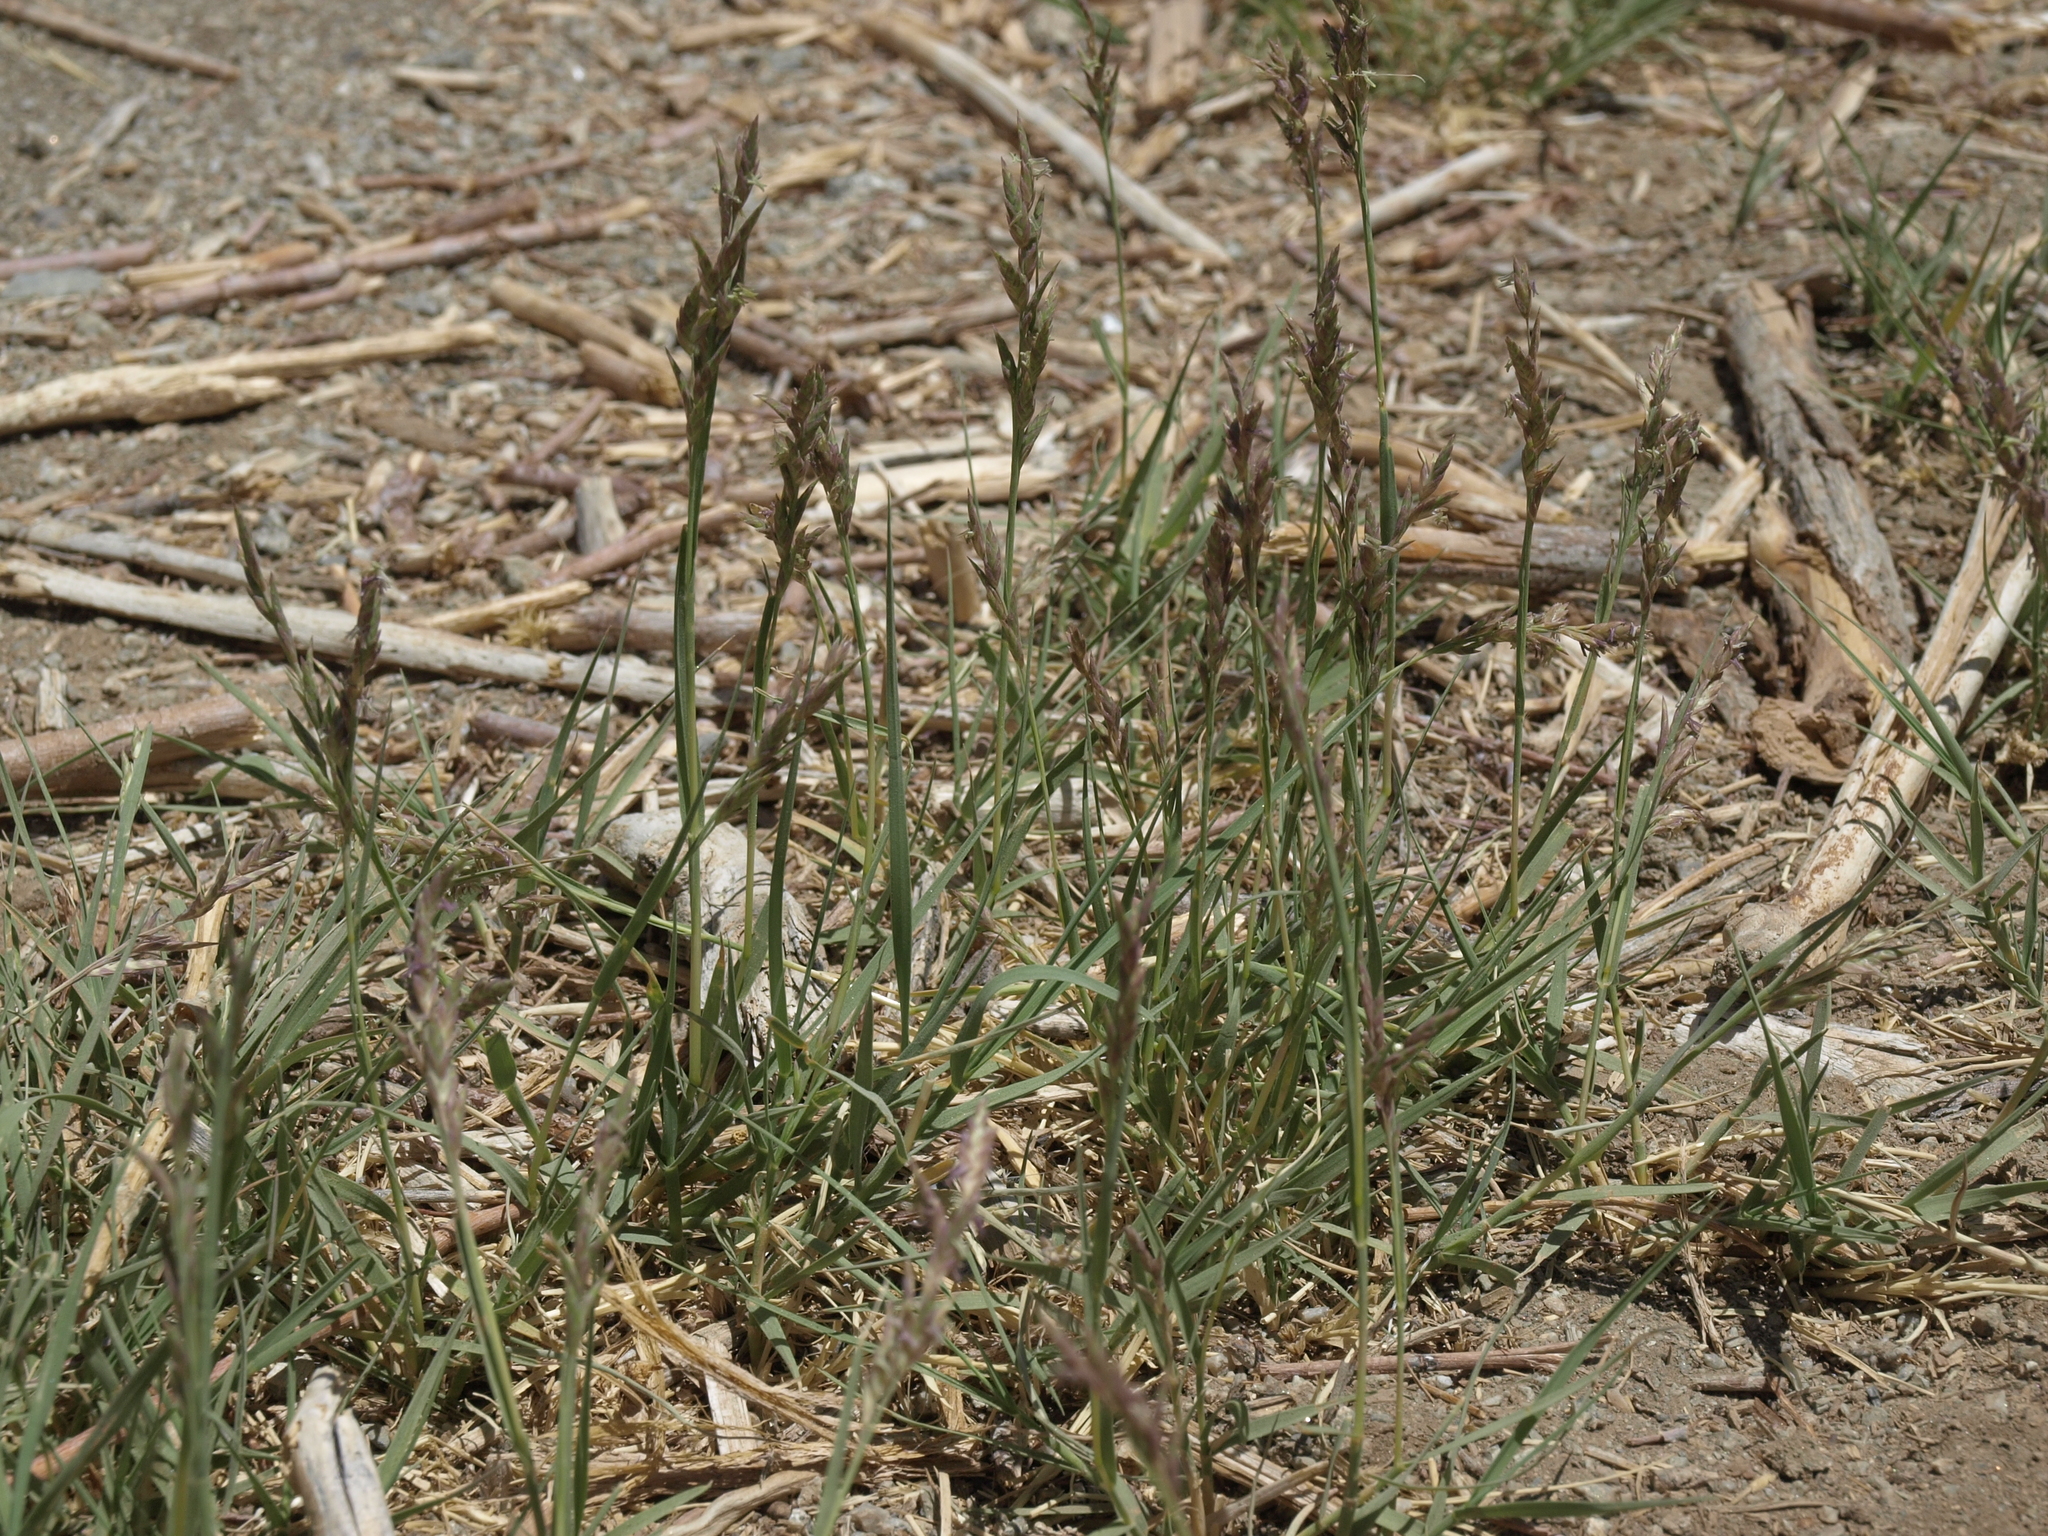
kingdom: Plantae
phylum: Tracheophyta
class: Liliopsida
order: Poales
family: Poaceae
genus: Distichlis
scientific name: Distichlis spicata
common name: Saltgrass
